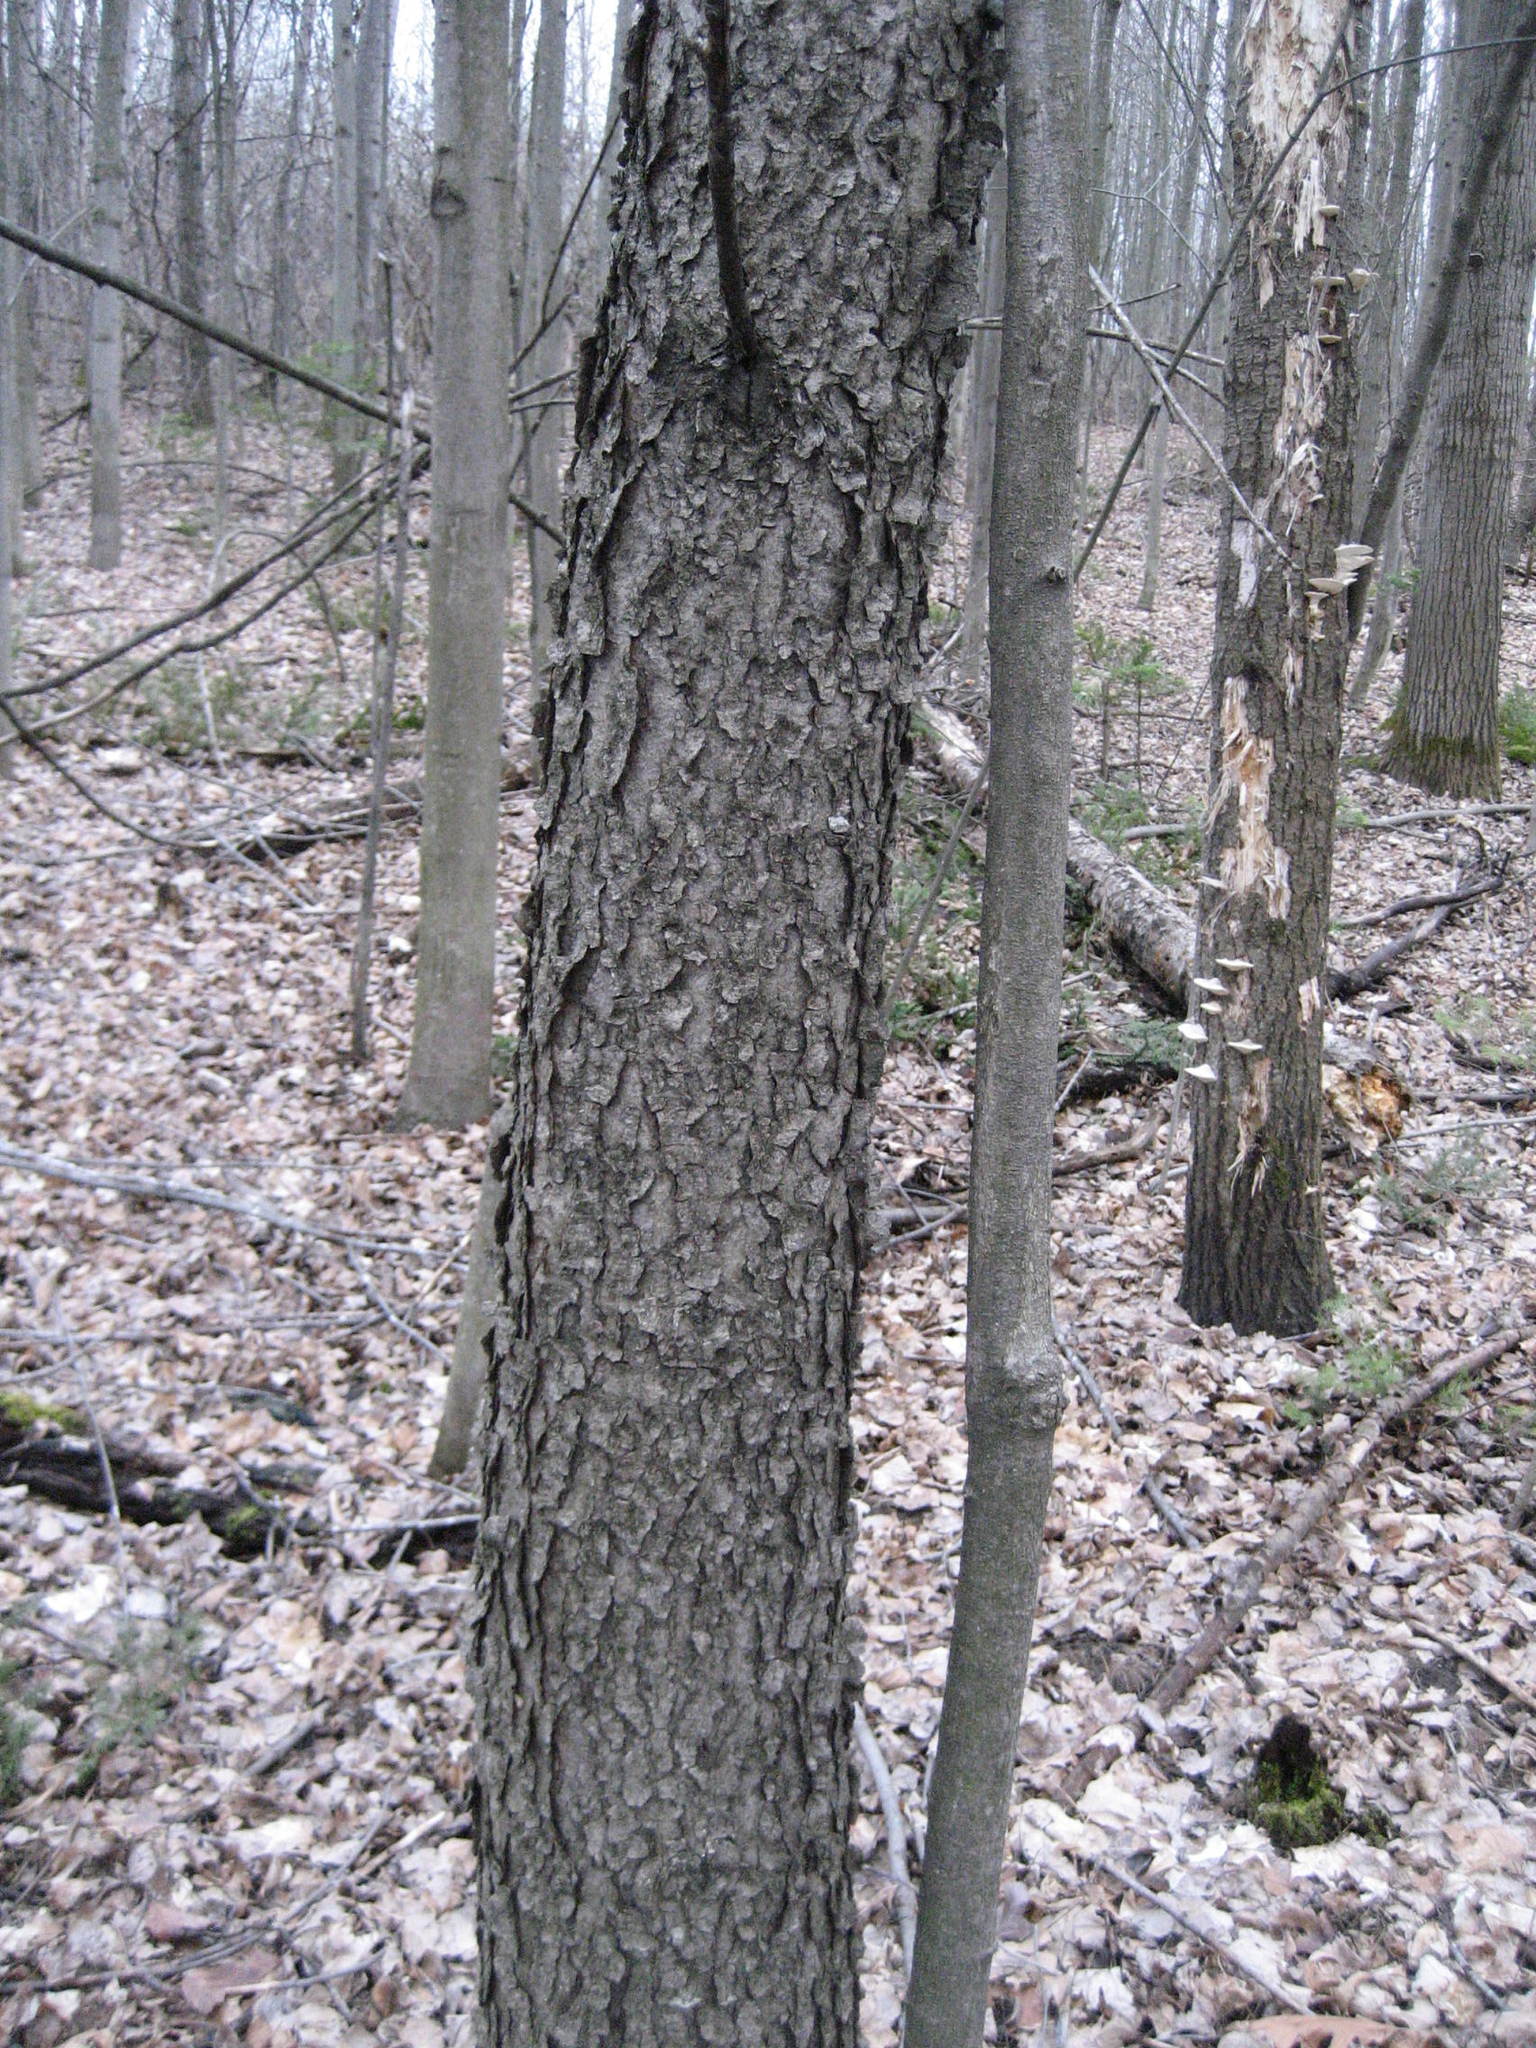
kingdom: Plantae
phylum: Tracheophyta
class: Magnoliopsida
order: Rosales
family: Rosaceae
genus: Prunus
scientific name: Prunus serotina
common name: Black cherry
